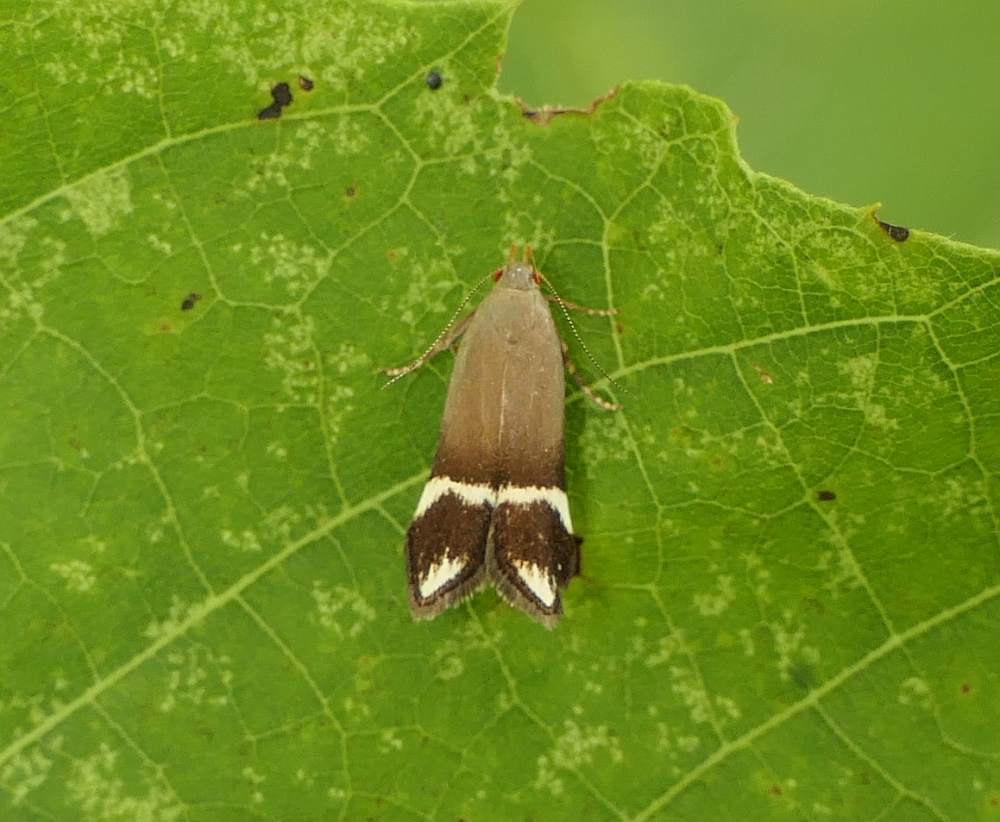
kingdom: Animalia
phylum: Arthropoda
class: Insecta
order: Lepidoptera
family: Gelechiidae
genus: Anacampsis
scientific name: Anacampsis tristrigella
